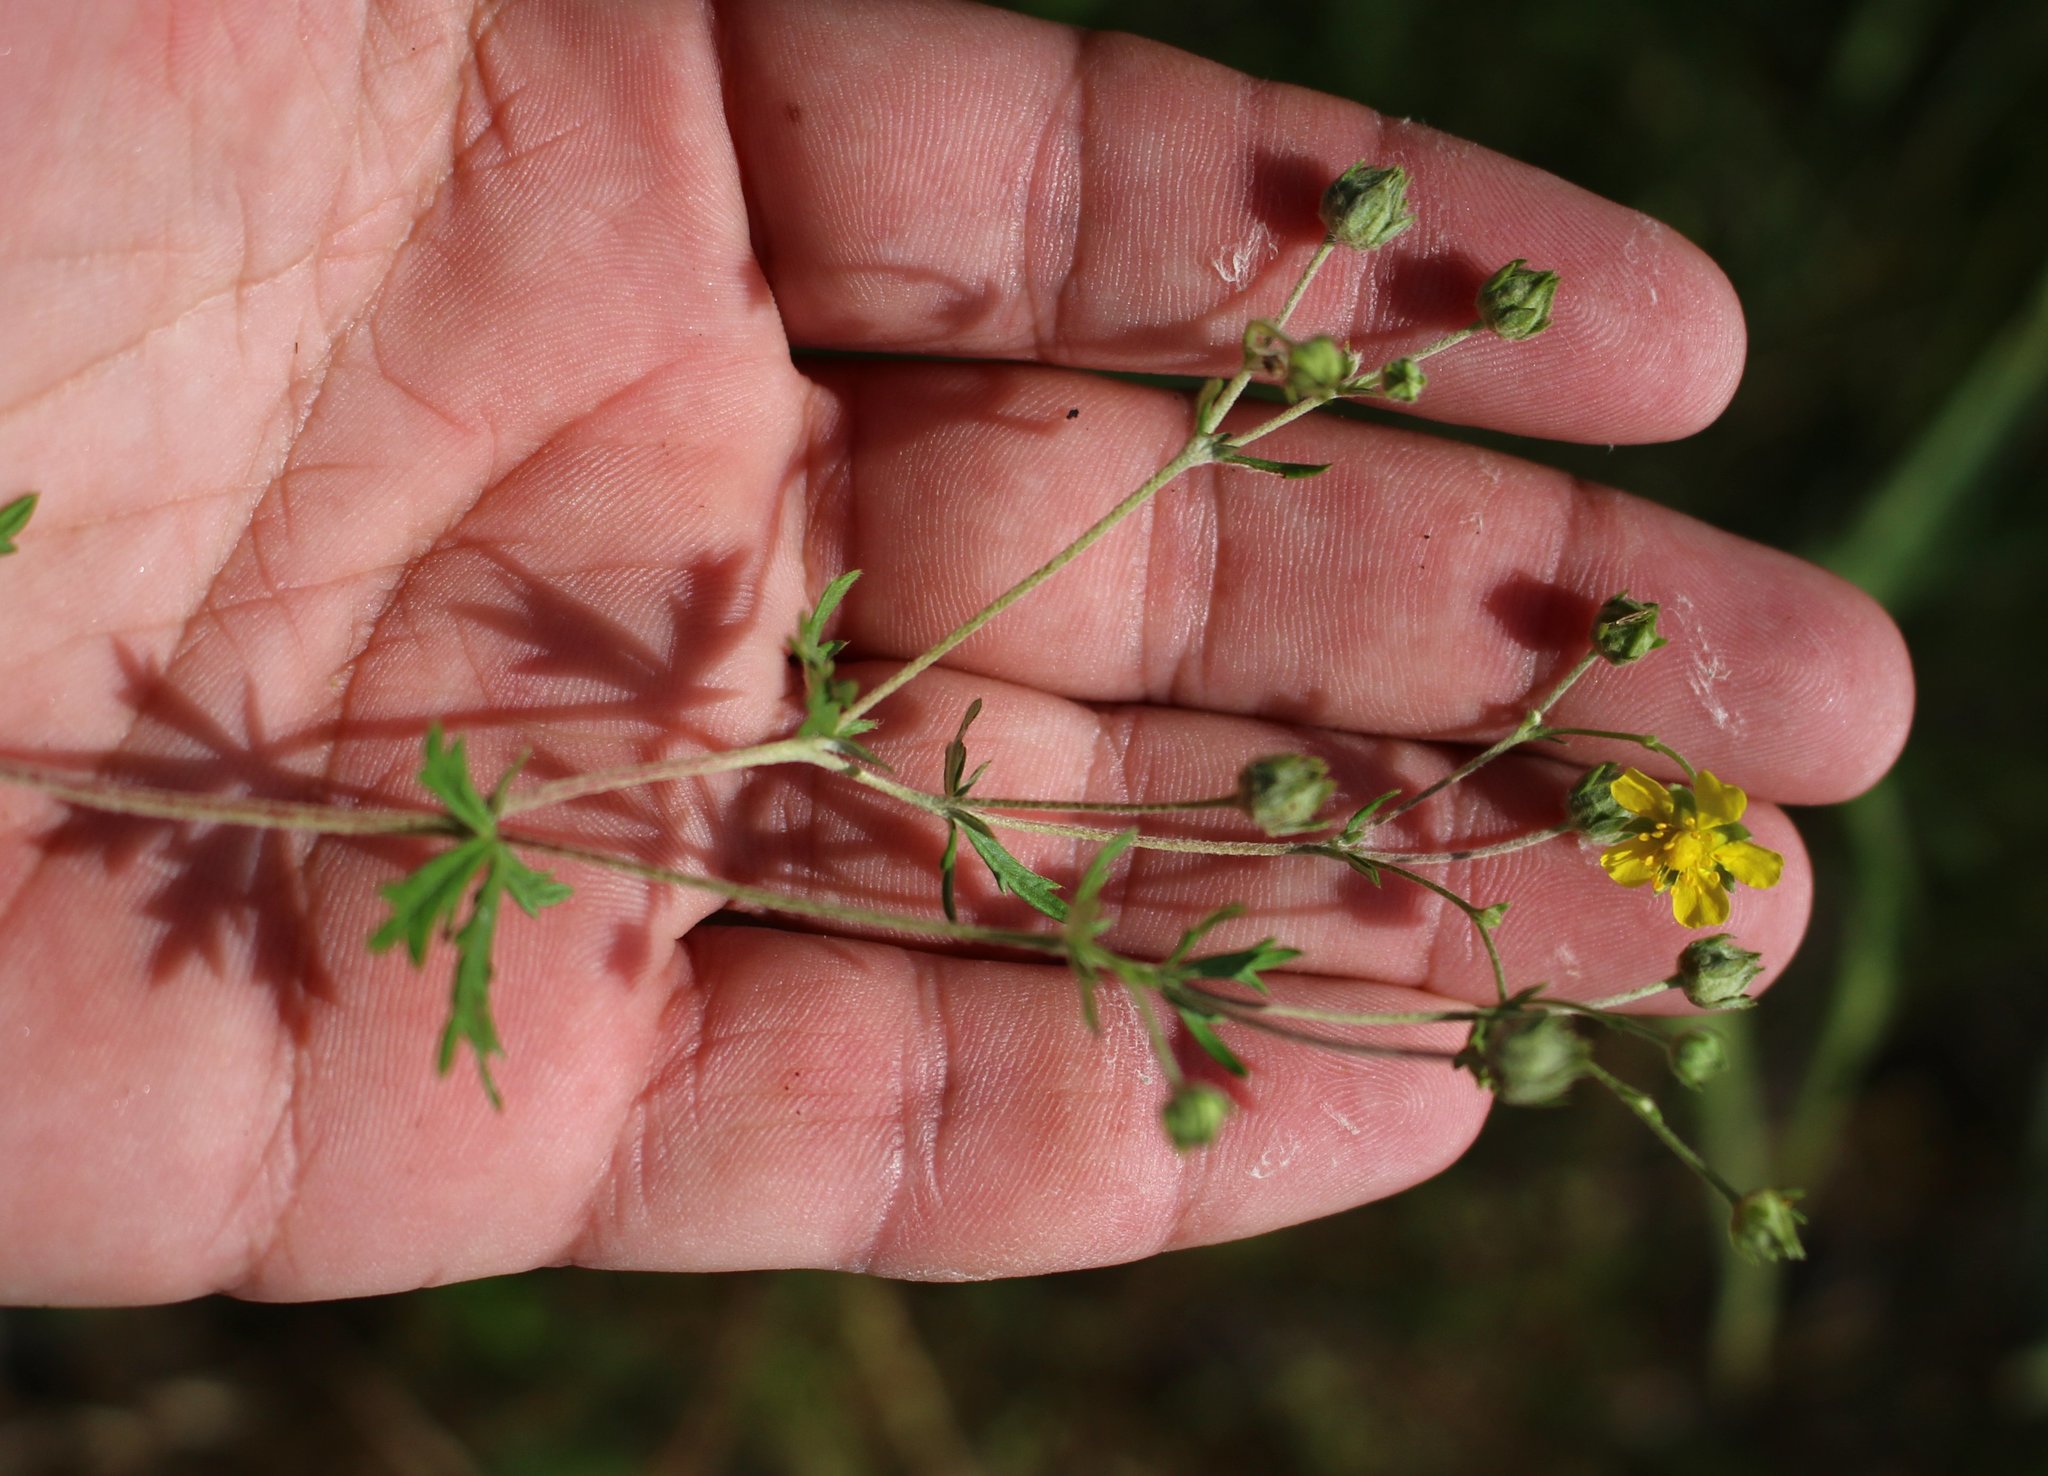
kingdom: Plantae
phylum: Tracheophyta
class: Magnoliopsida
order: Rosales
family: Rosaceae
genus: Potentilla
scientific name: Potentilla argentea
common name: Hoary cinquefoil
